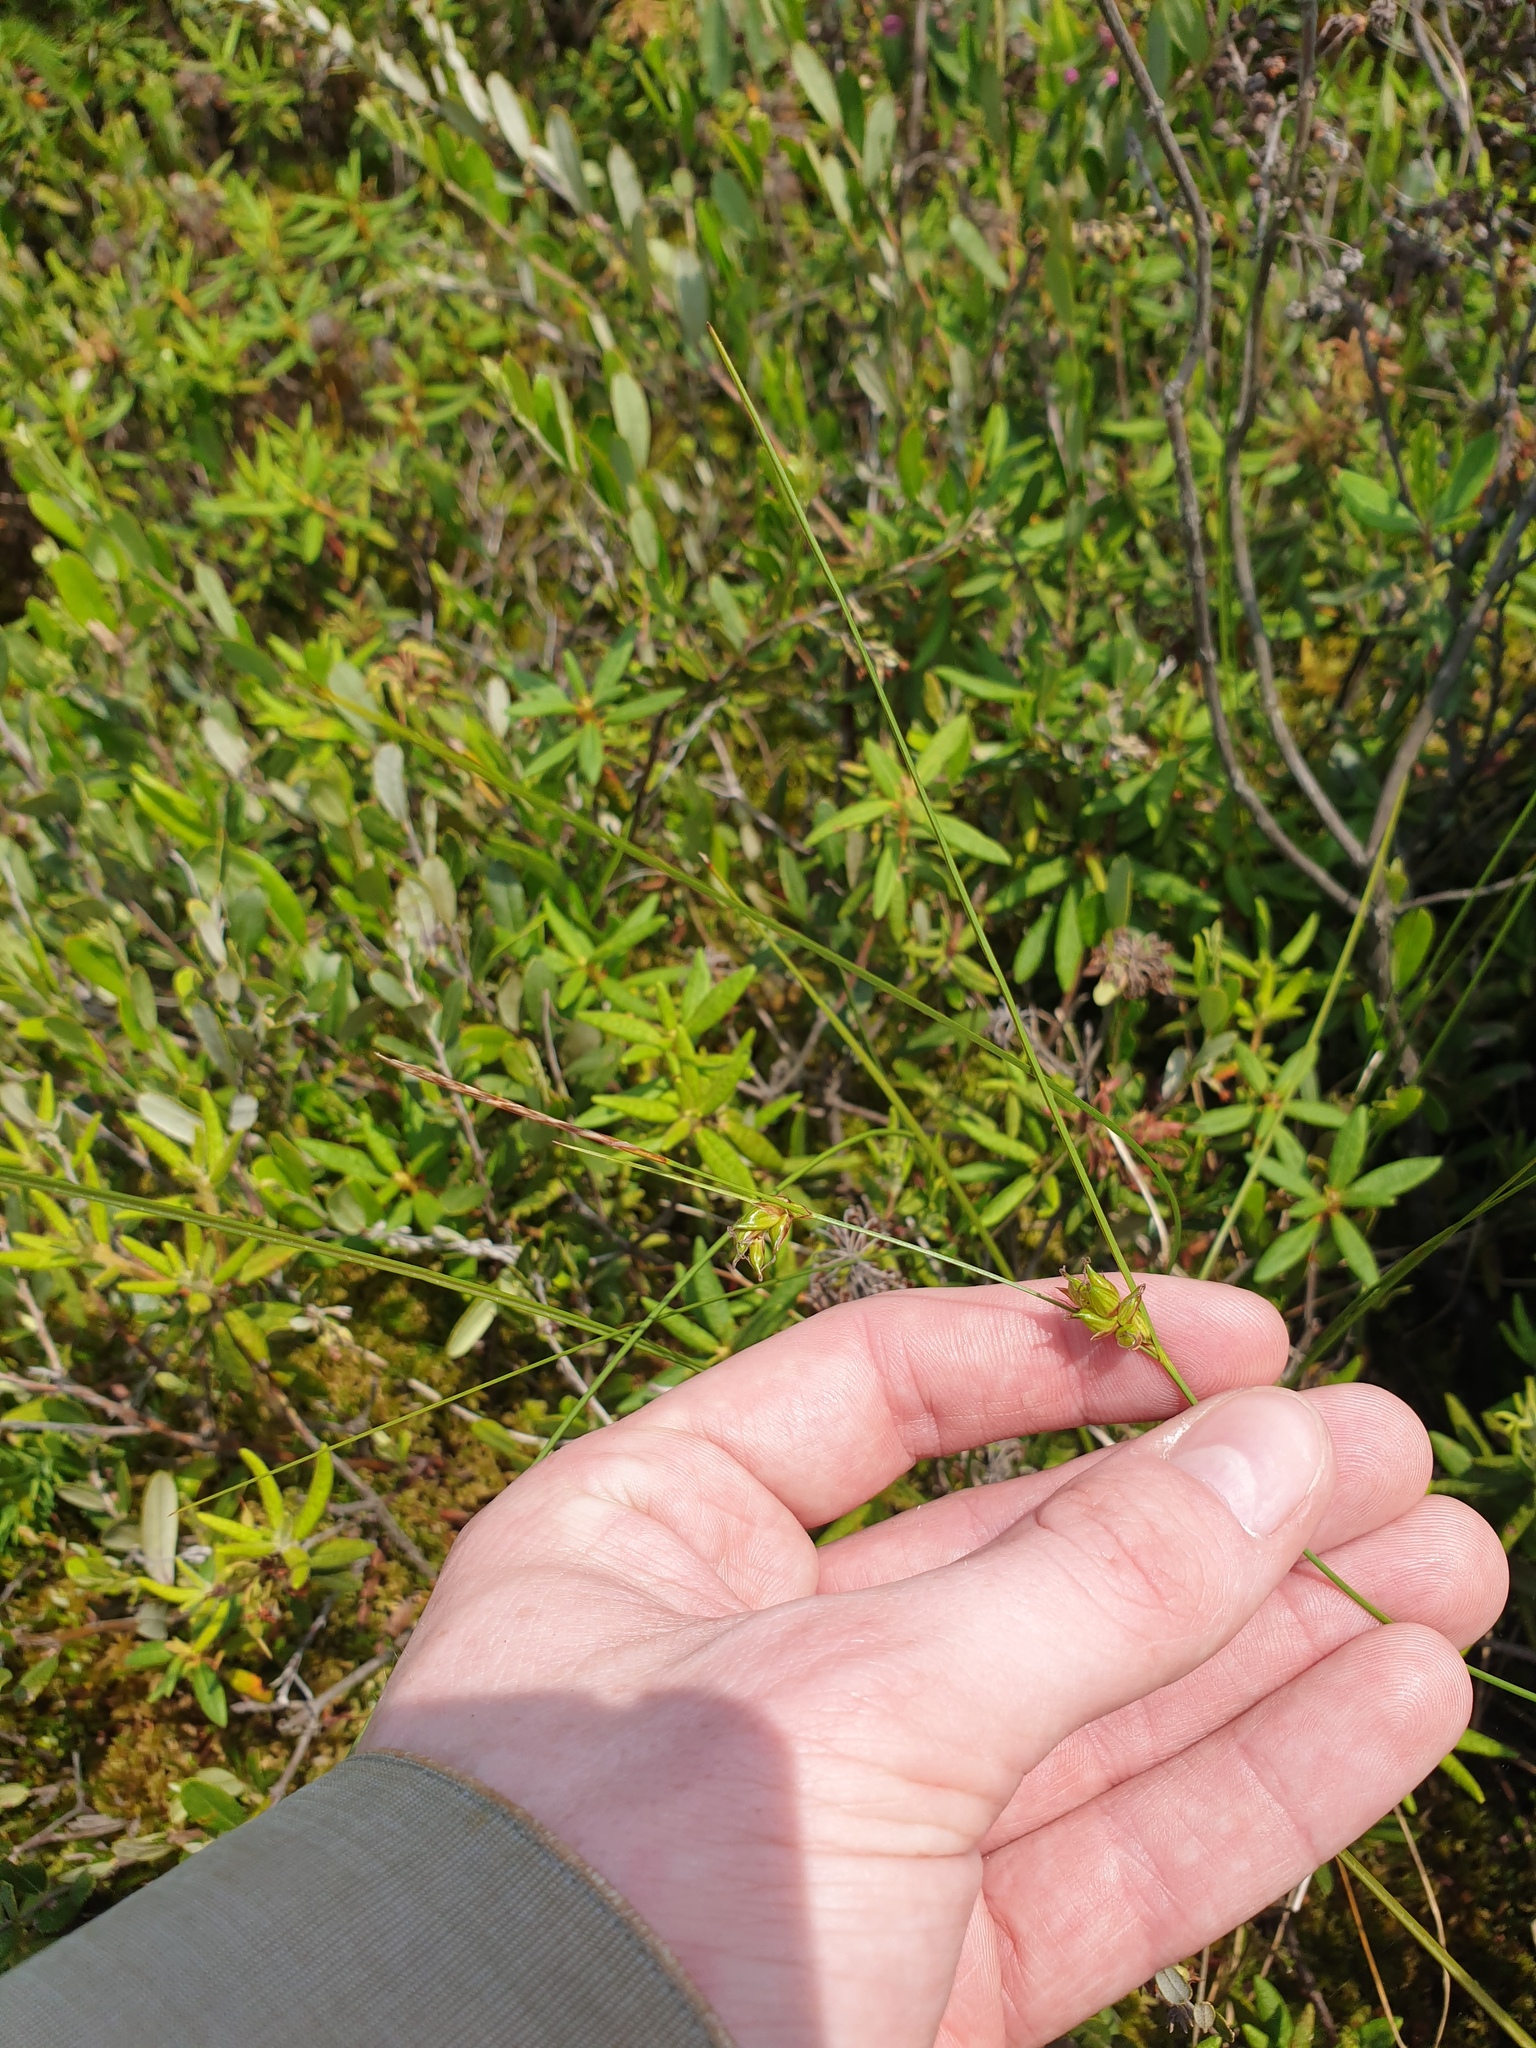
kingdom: Plantae
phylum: Tracheophyta
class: Liliopsida
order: Poales
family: Cyperaceae
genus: Carex
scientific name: Carex oligosperma
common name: Few-seed sedge
